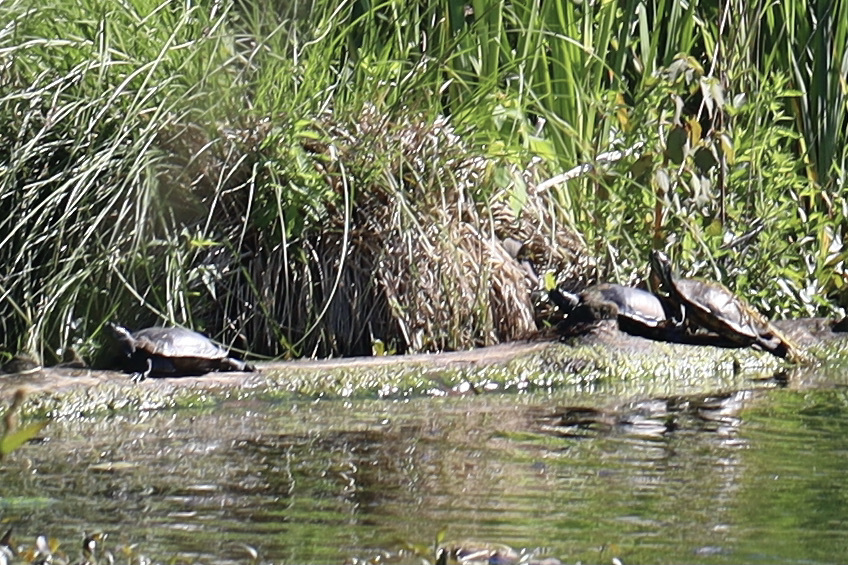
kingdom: Animalia
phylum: Chordata
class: Testudines
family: Emydidae
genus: Trachemys
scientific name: Trachemys scripta
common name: Slider
